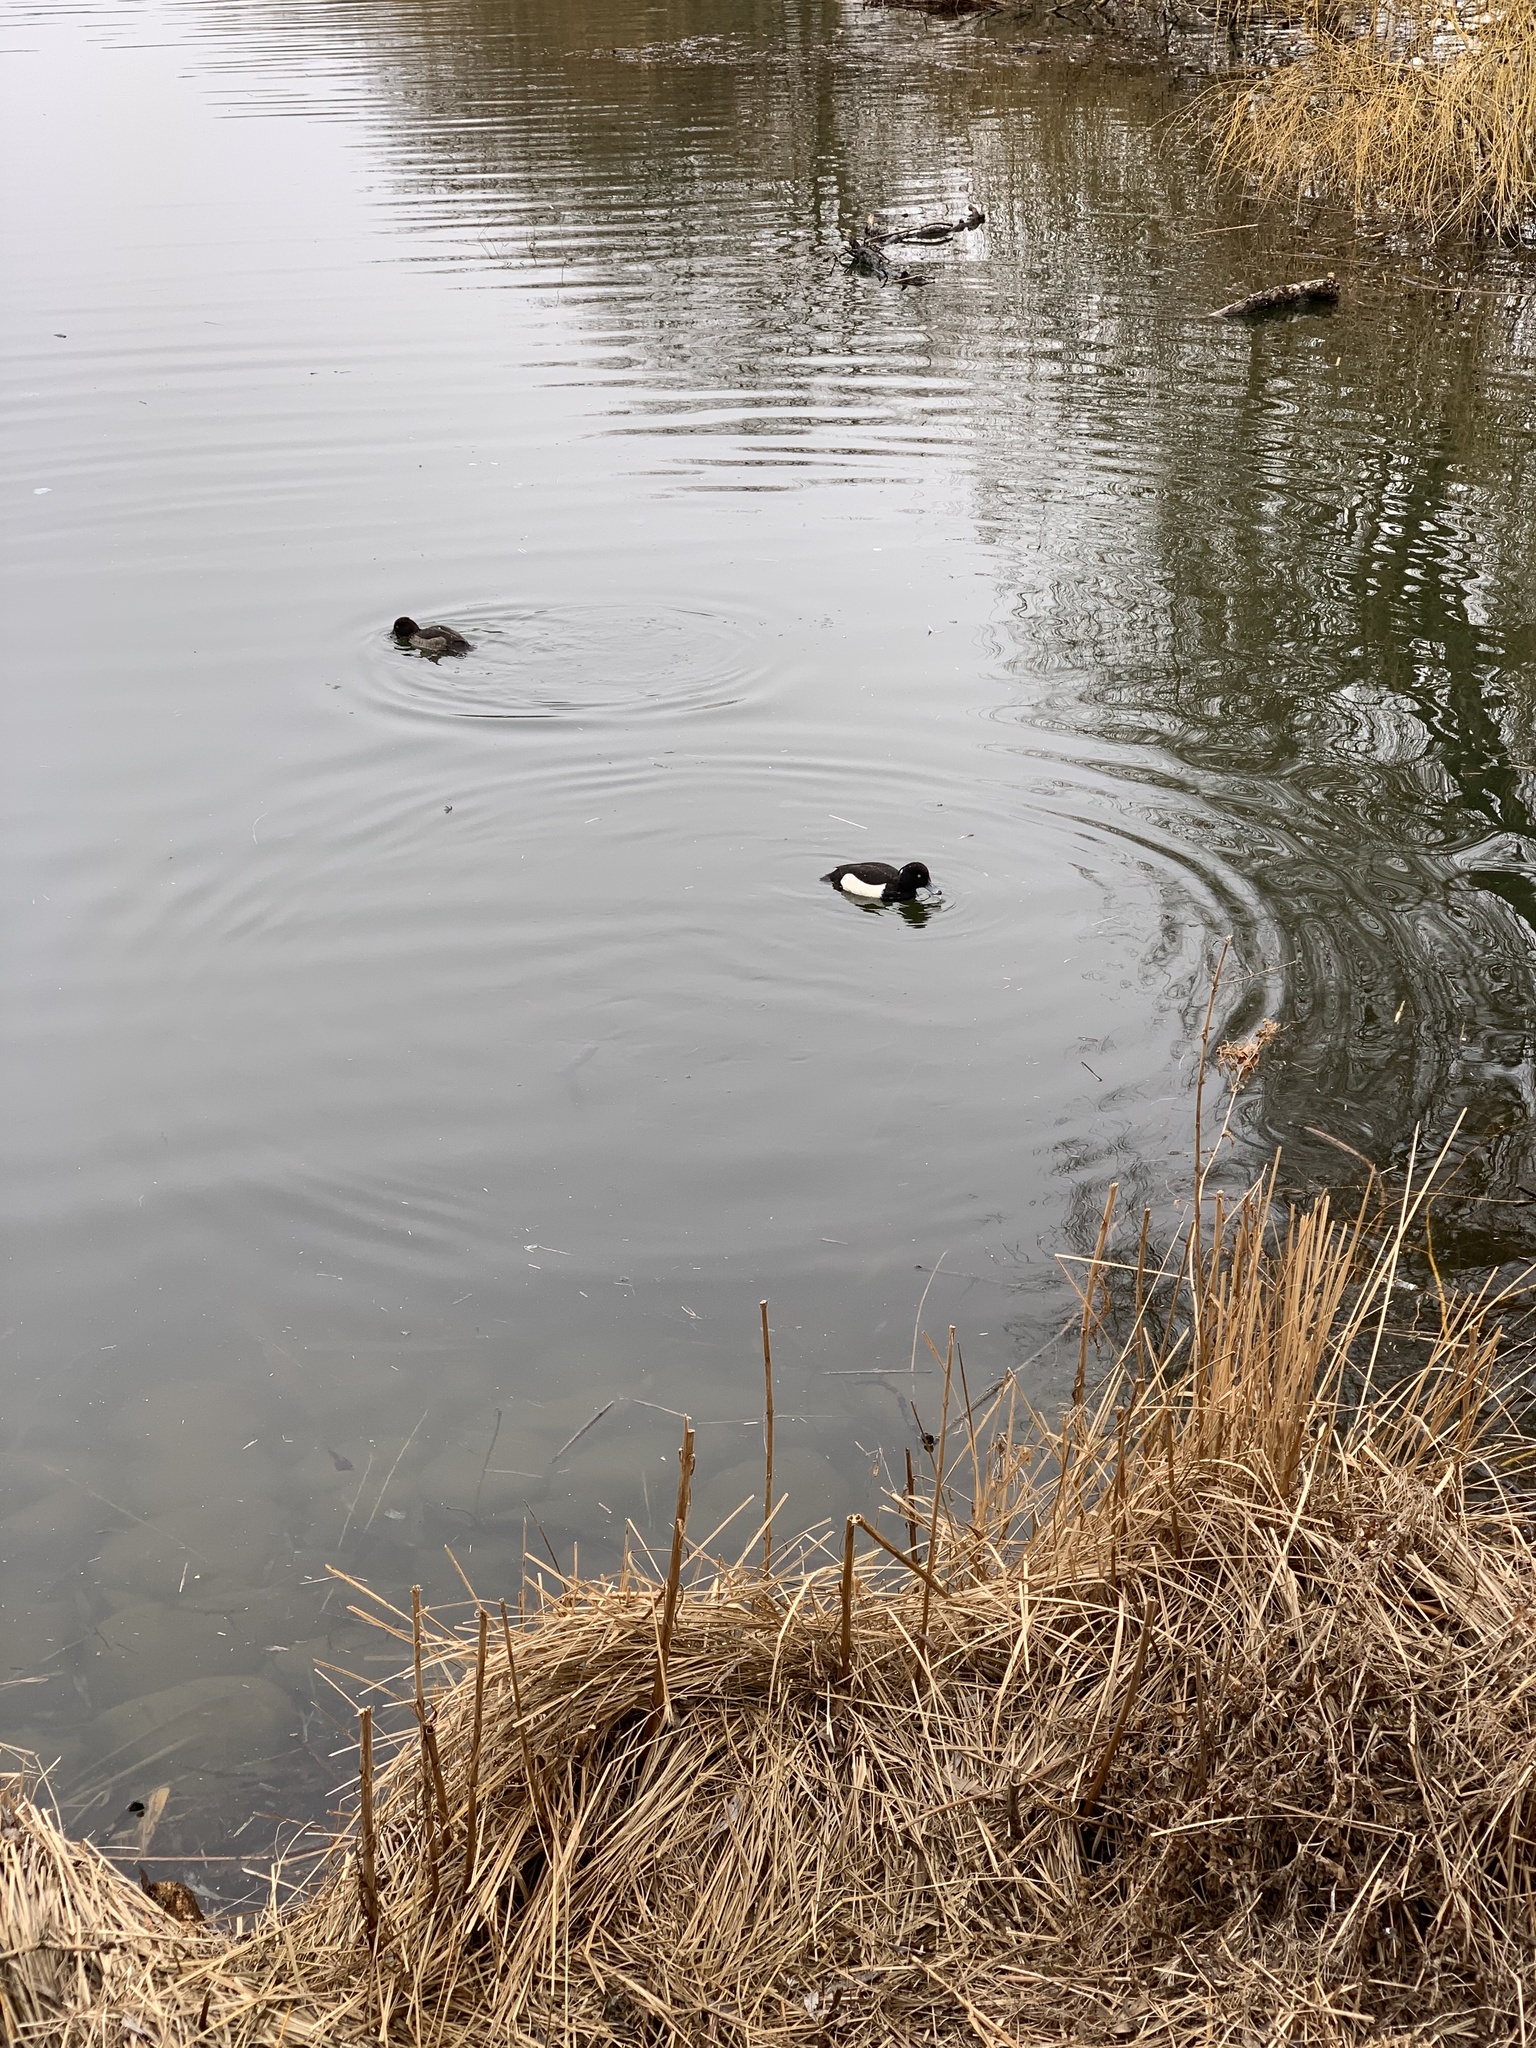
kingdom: Animalia
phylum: Chordata
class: Aves
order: Anseriformes
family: Anatidae
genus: Aythya
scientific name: Aythya fuligula
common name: Tufted duck
